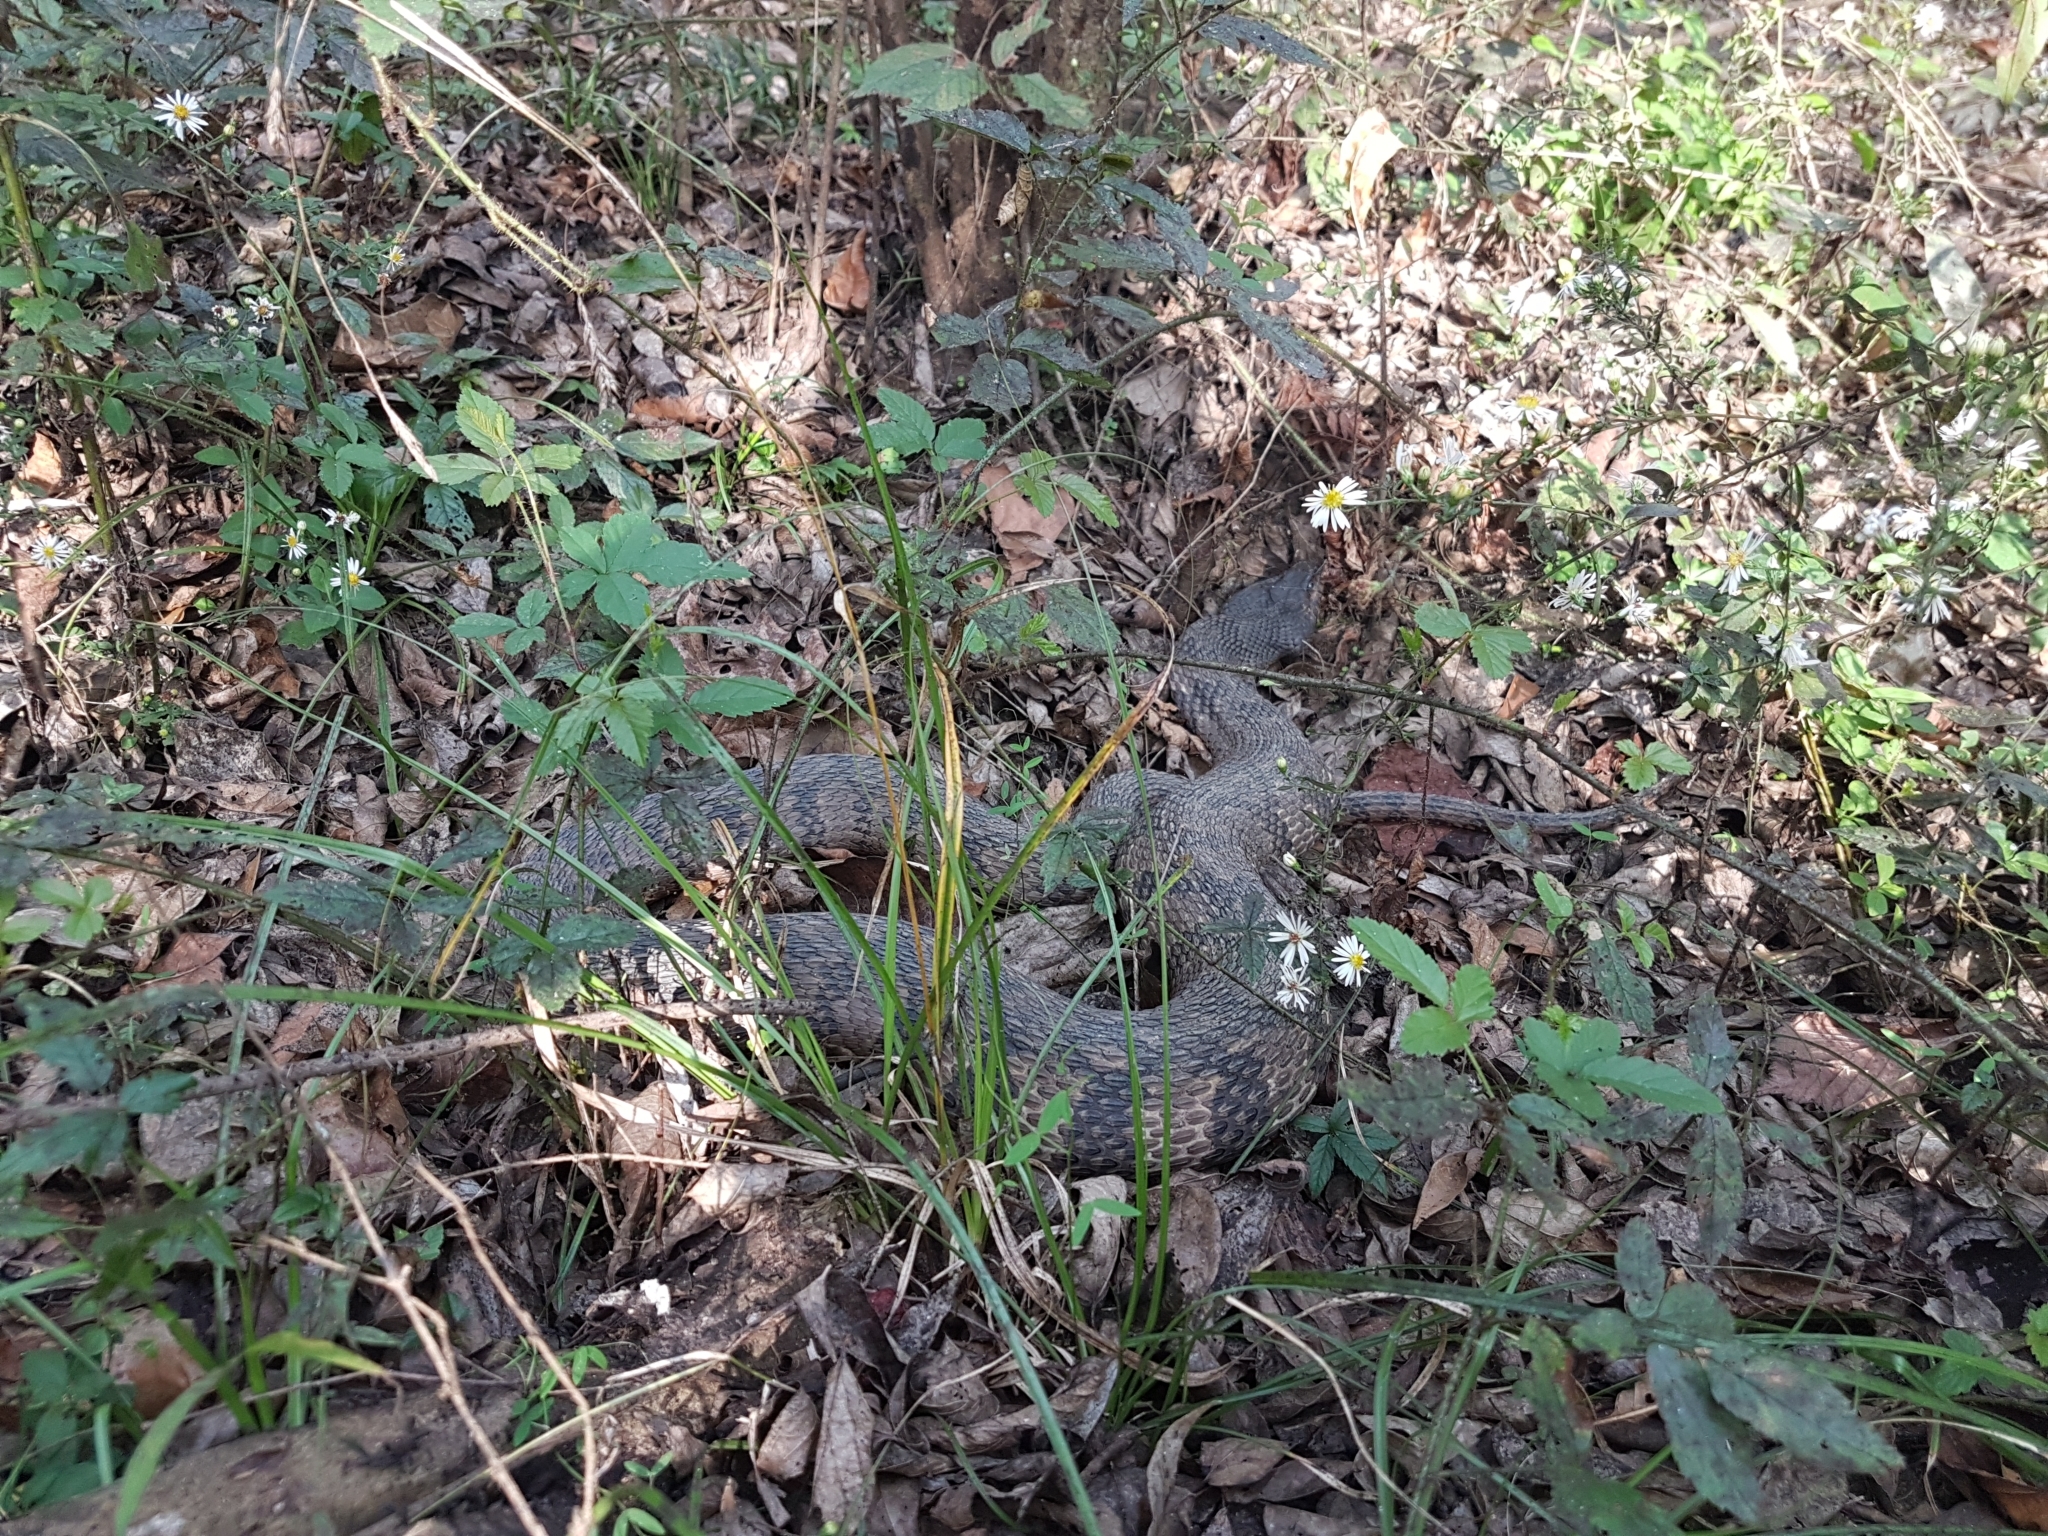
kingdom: Animalia
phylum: Chordata
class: Squamata
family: Colubridae
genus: Nerodia
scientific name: Nerodia rhombifer
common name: Diamondback water snake
